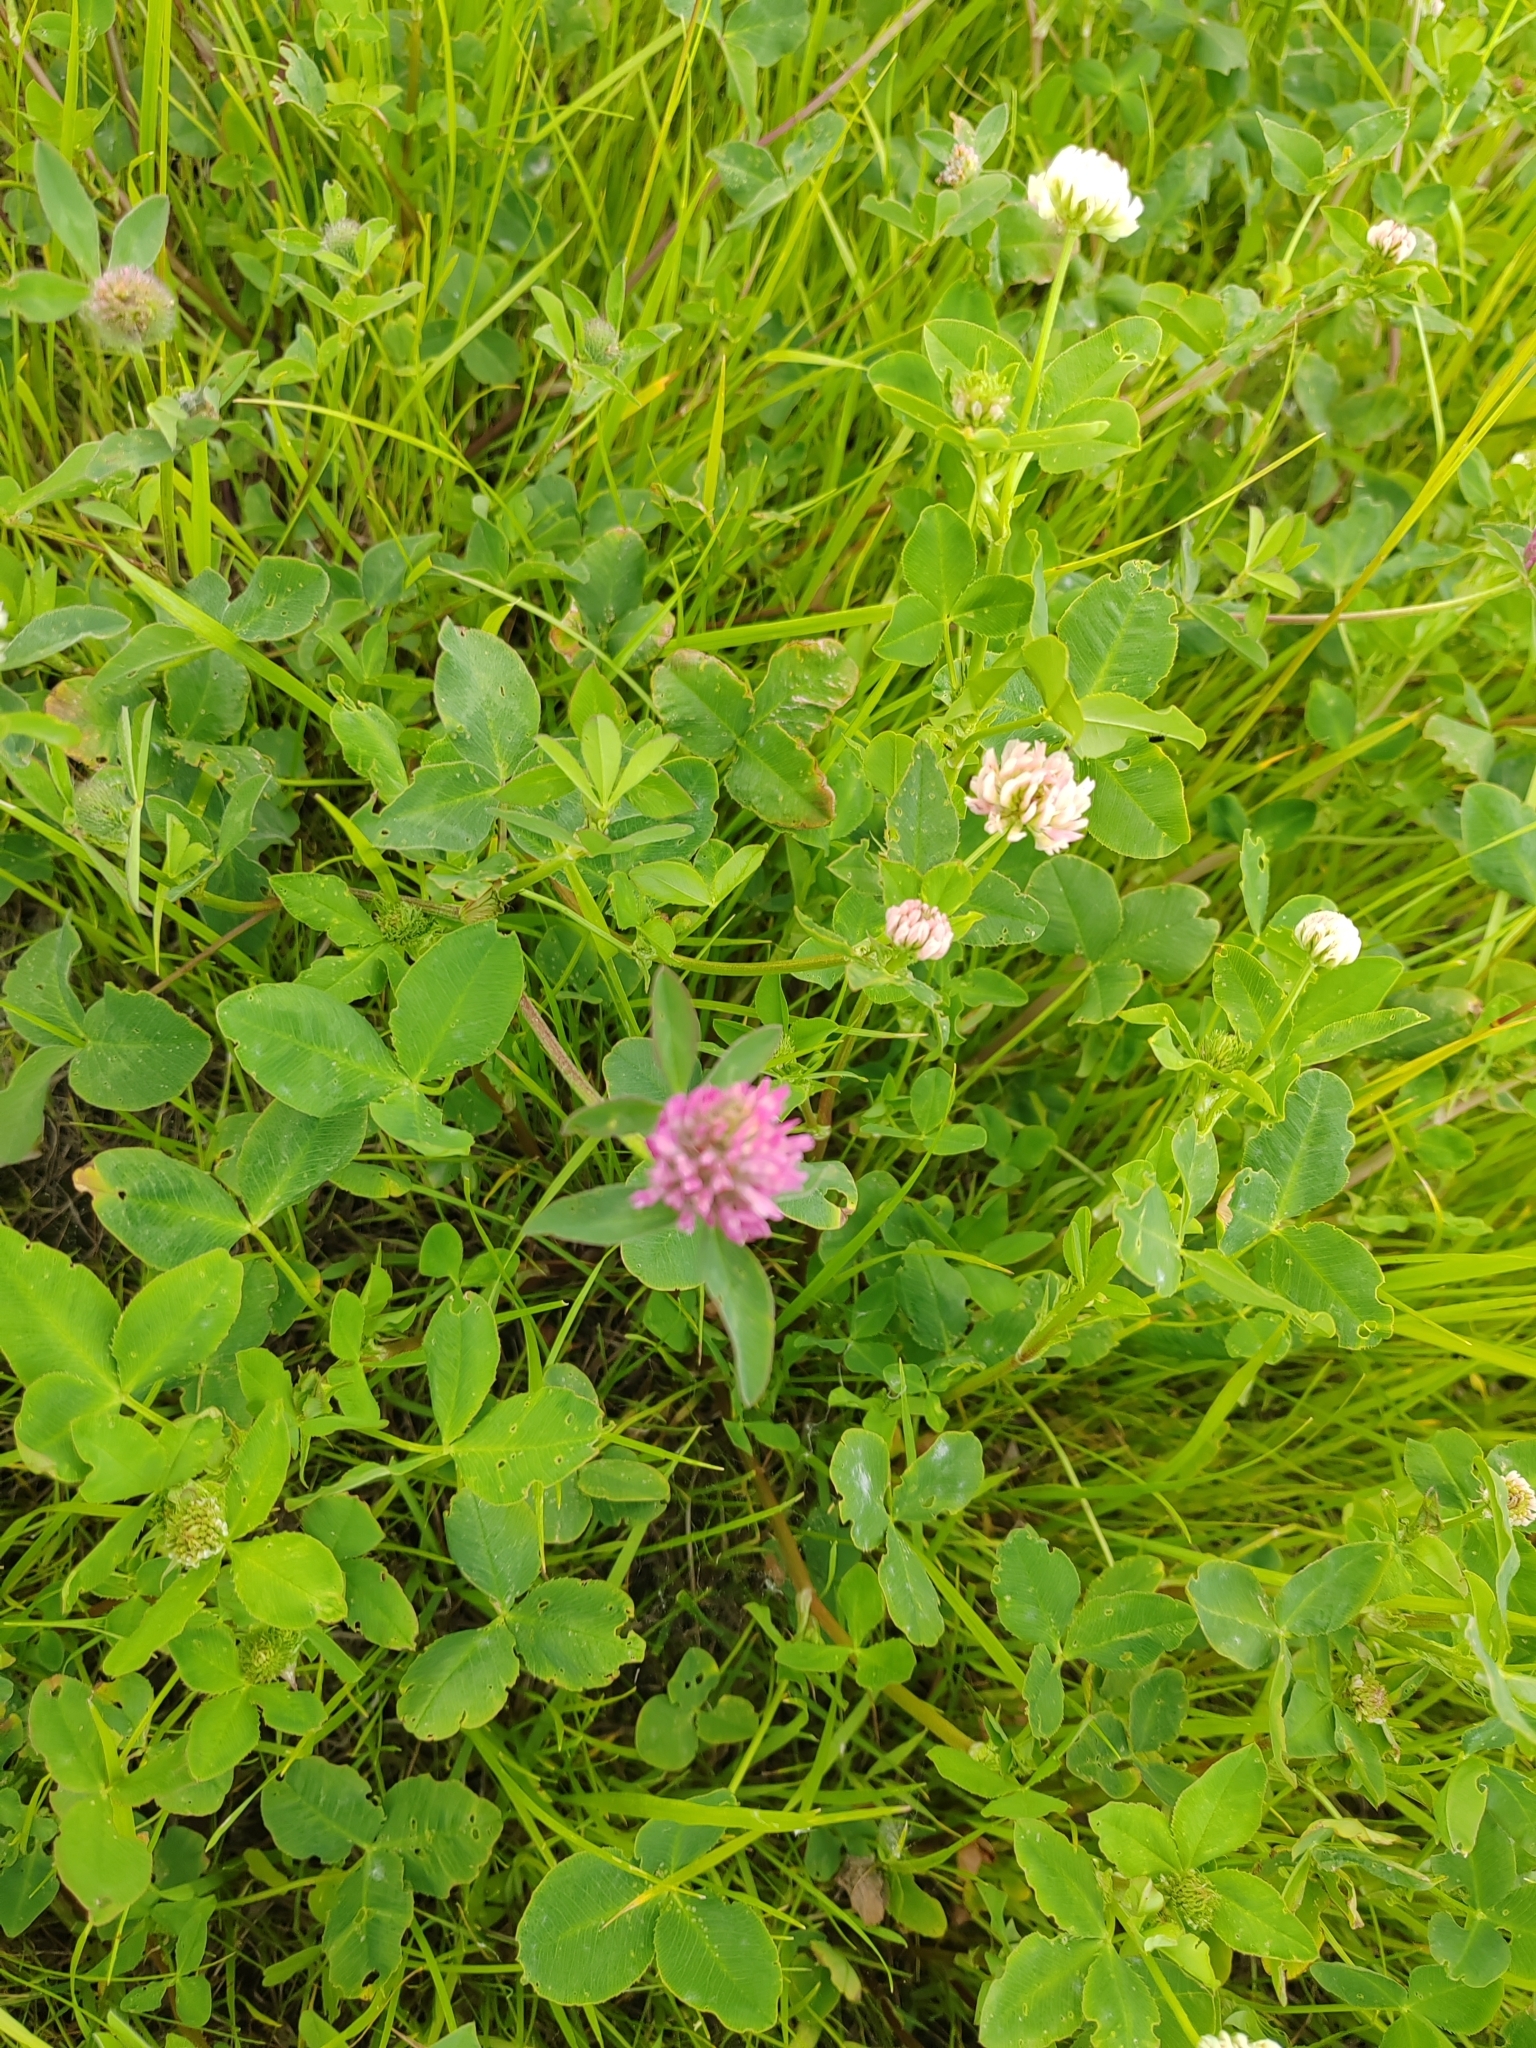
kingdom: Plantae
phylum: Tracheophyta
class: Magnoliopsida
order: Fabales
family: Fabaceae
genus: Trifolium
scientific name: Trifolium pratense
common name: Red clover
